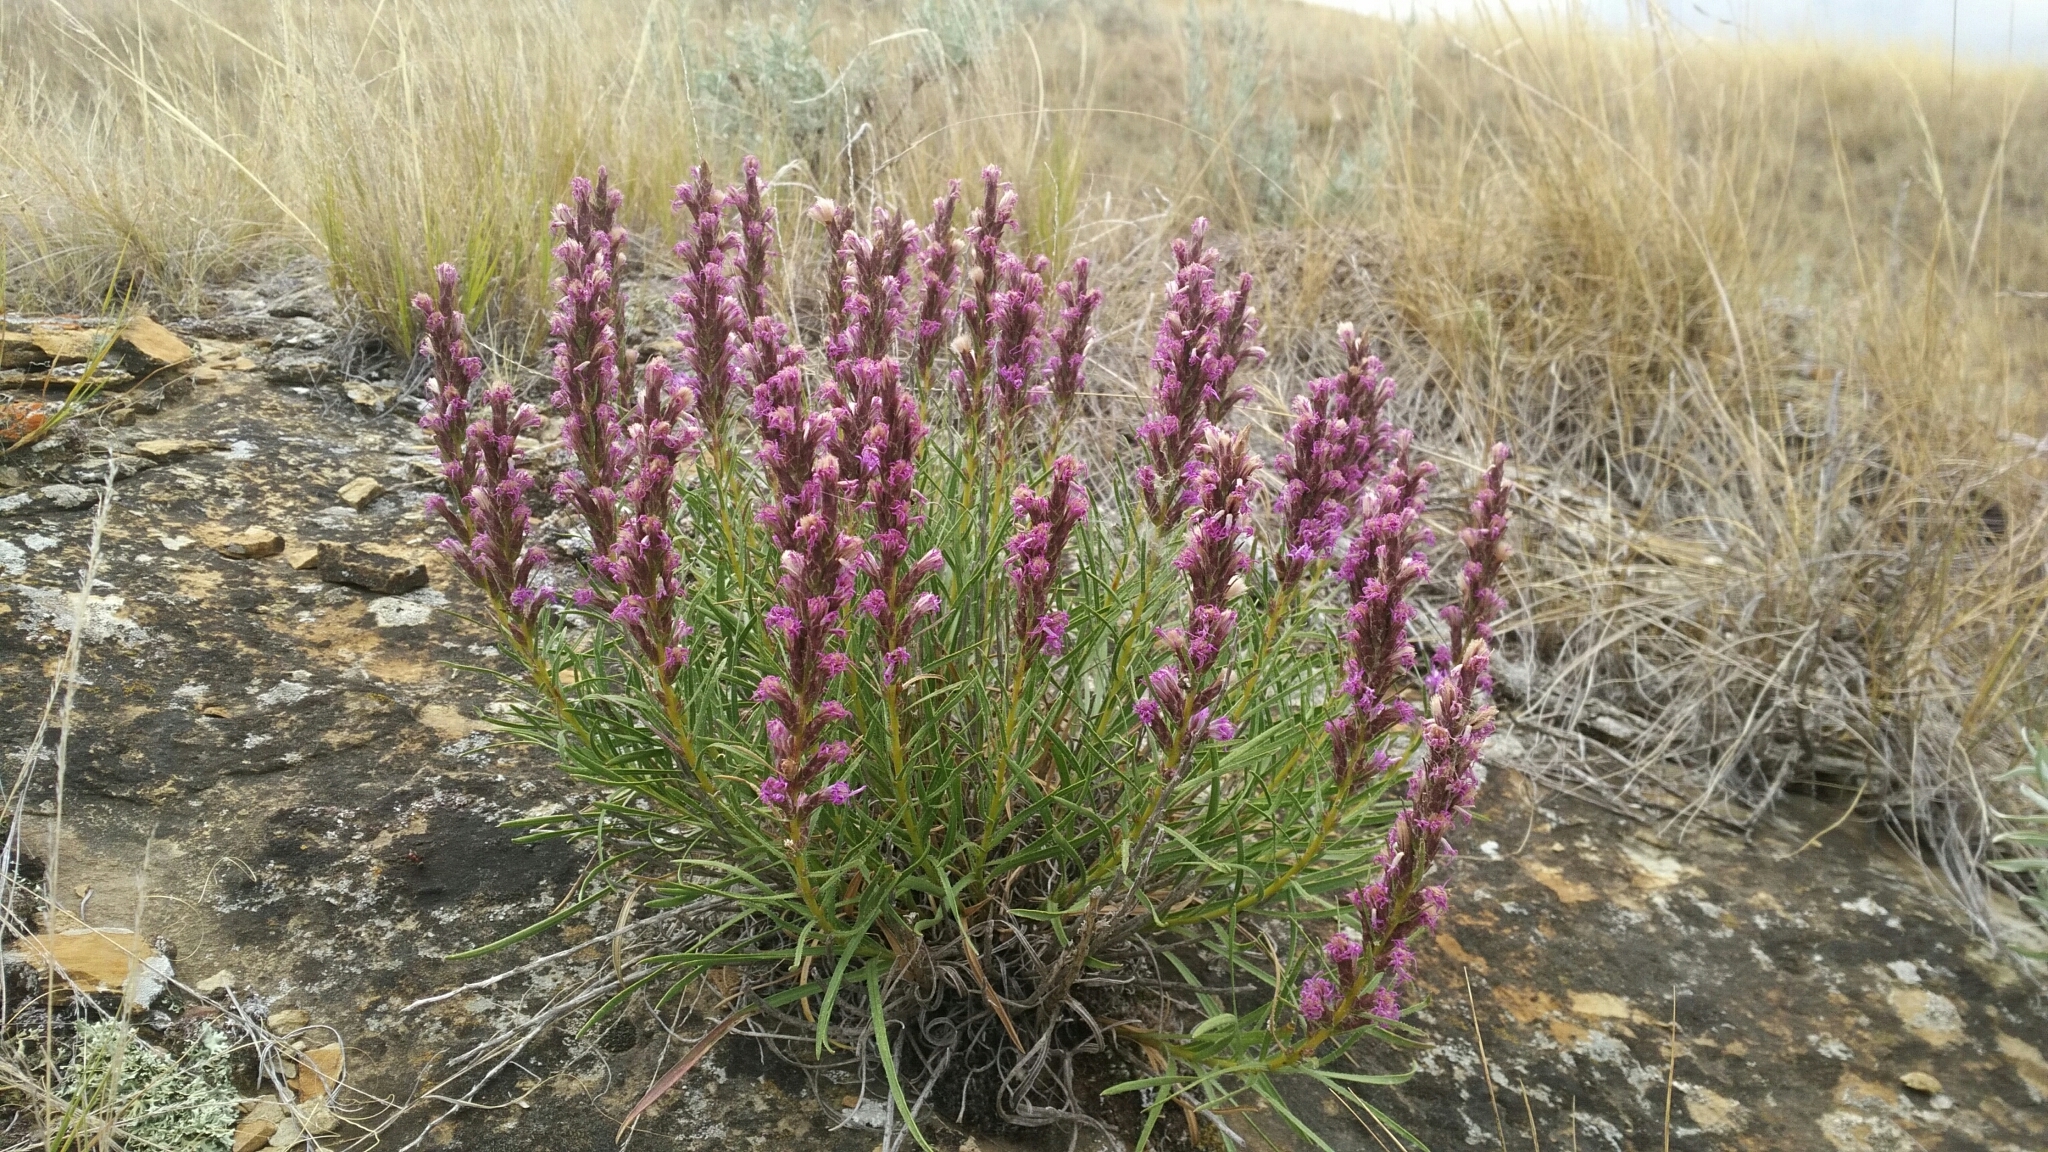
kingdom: Plantae
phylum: Tracheophyta
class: Magnoliopsida
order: Asterales
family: Asteraceae
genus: Liatris
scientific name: Liatris punctata
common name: Dotted gayfeather
